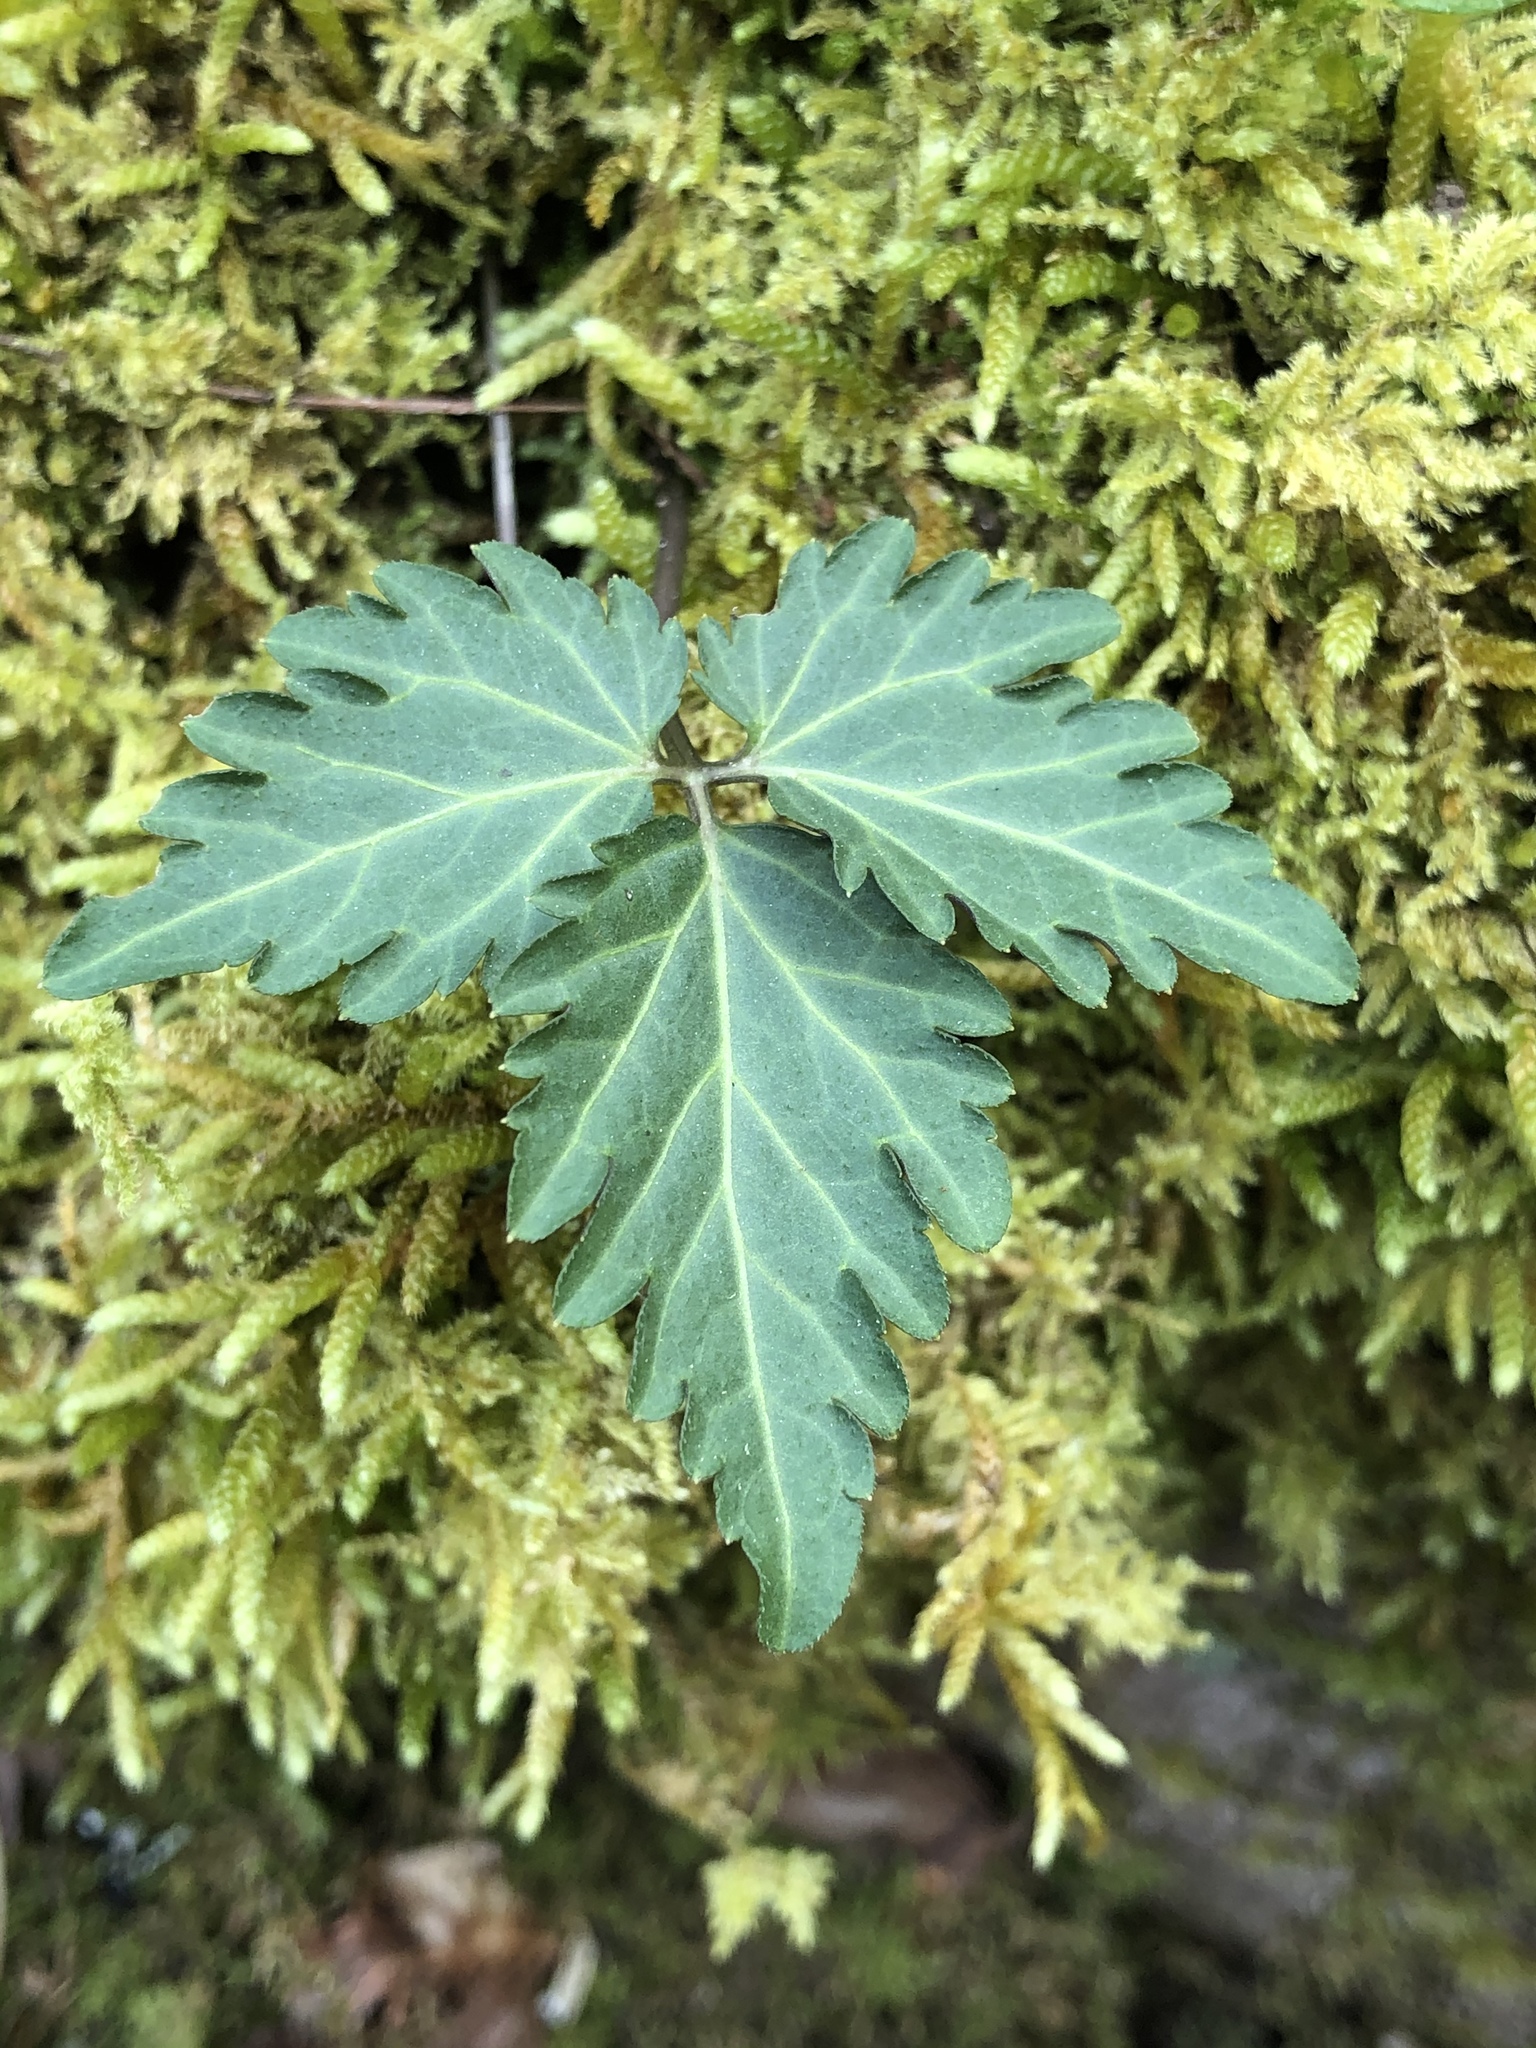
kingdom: Plantae
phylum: Tracheophyta
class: Magnoliopsida
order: Brassicales
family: Brassicaceae
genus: Cardamine
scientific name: Cardamine diphylla
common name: Broad-leaved toothwort
